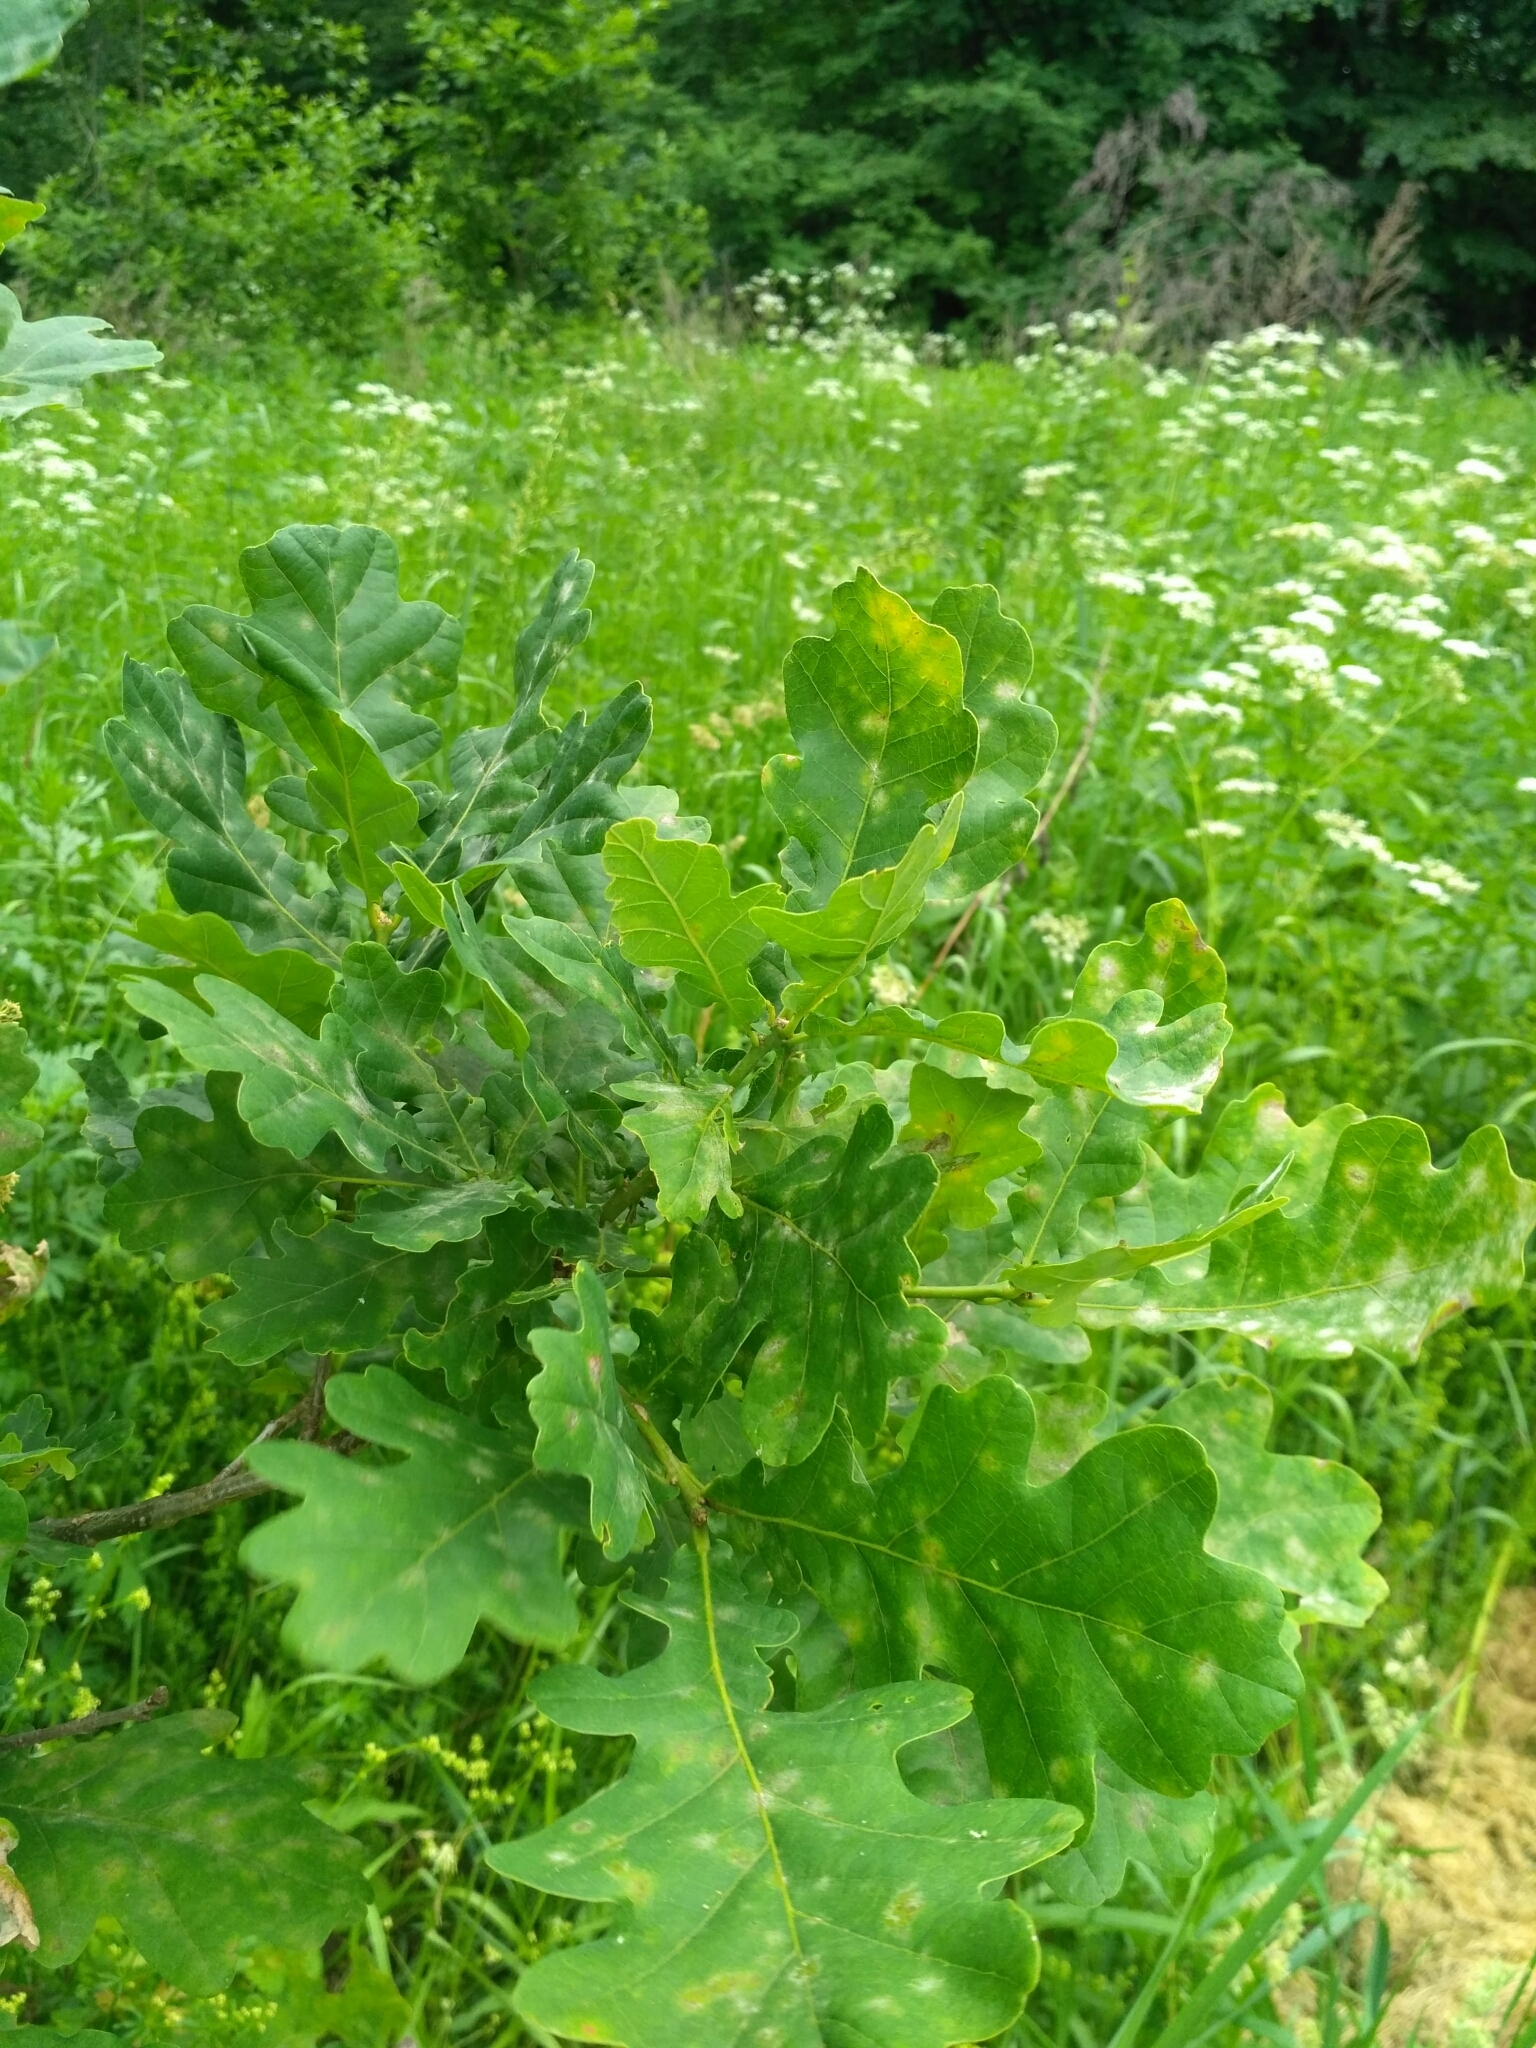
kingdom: Plantae
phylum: Tracheophyta
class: Magnoliopsida
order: Fagales
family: Fagaceae
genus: Quercus
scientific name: Quercus robur
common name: Pedunculate oak
